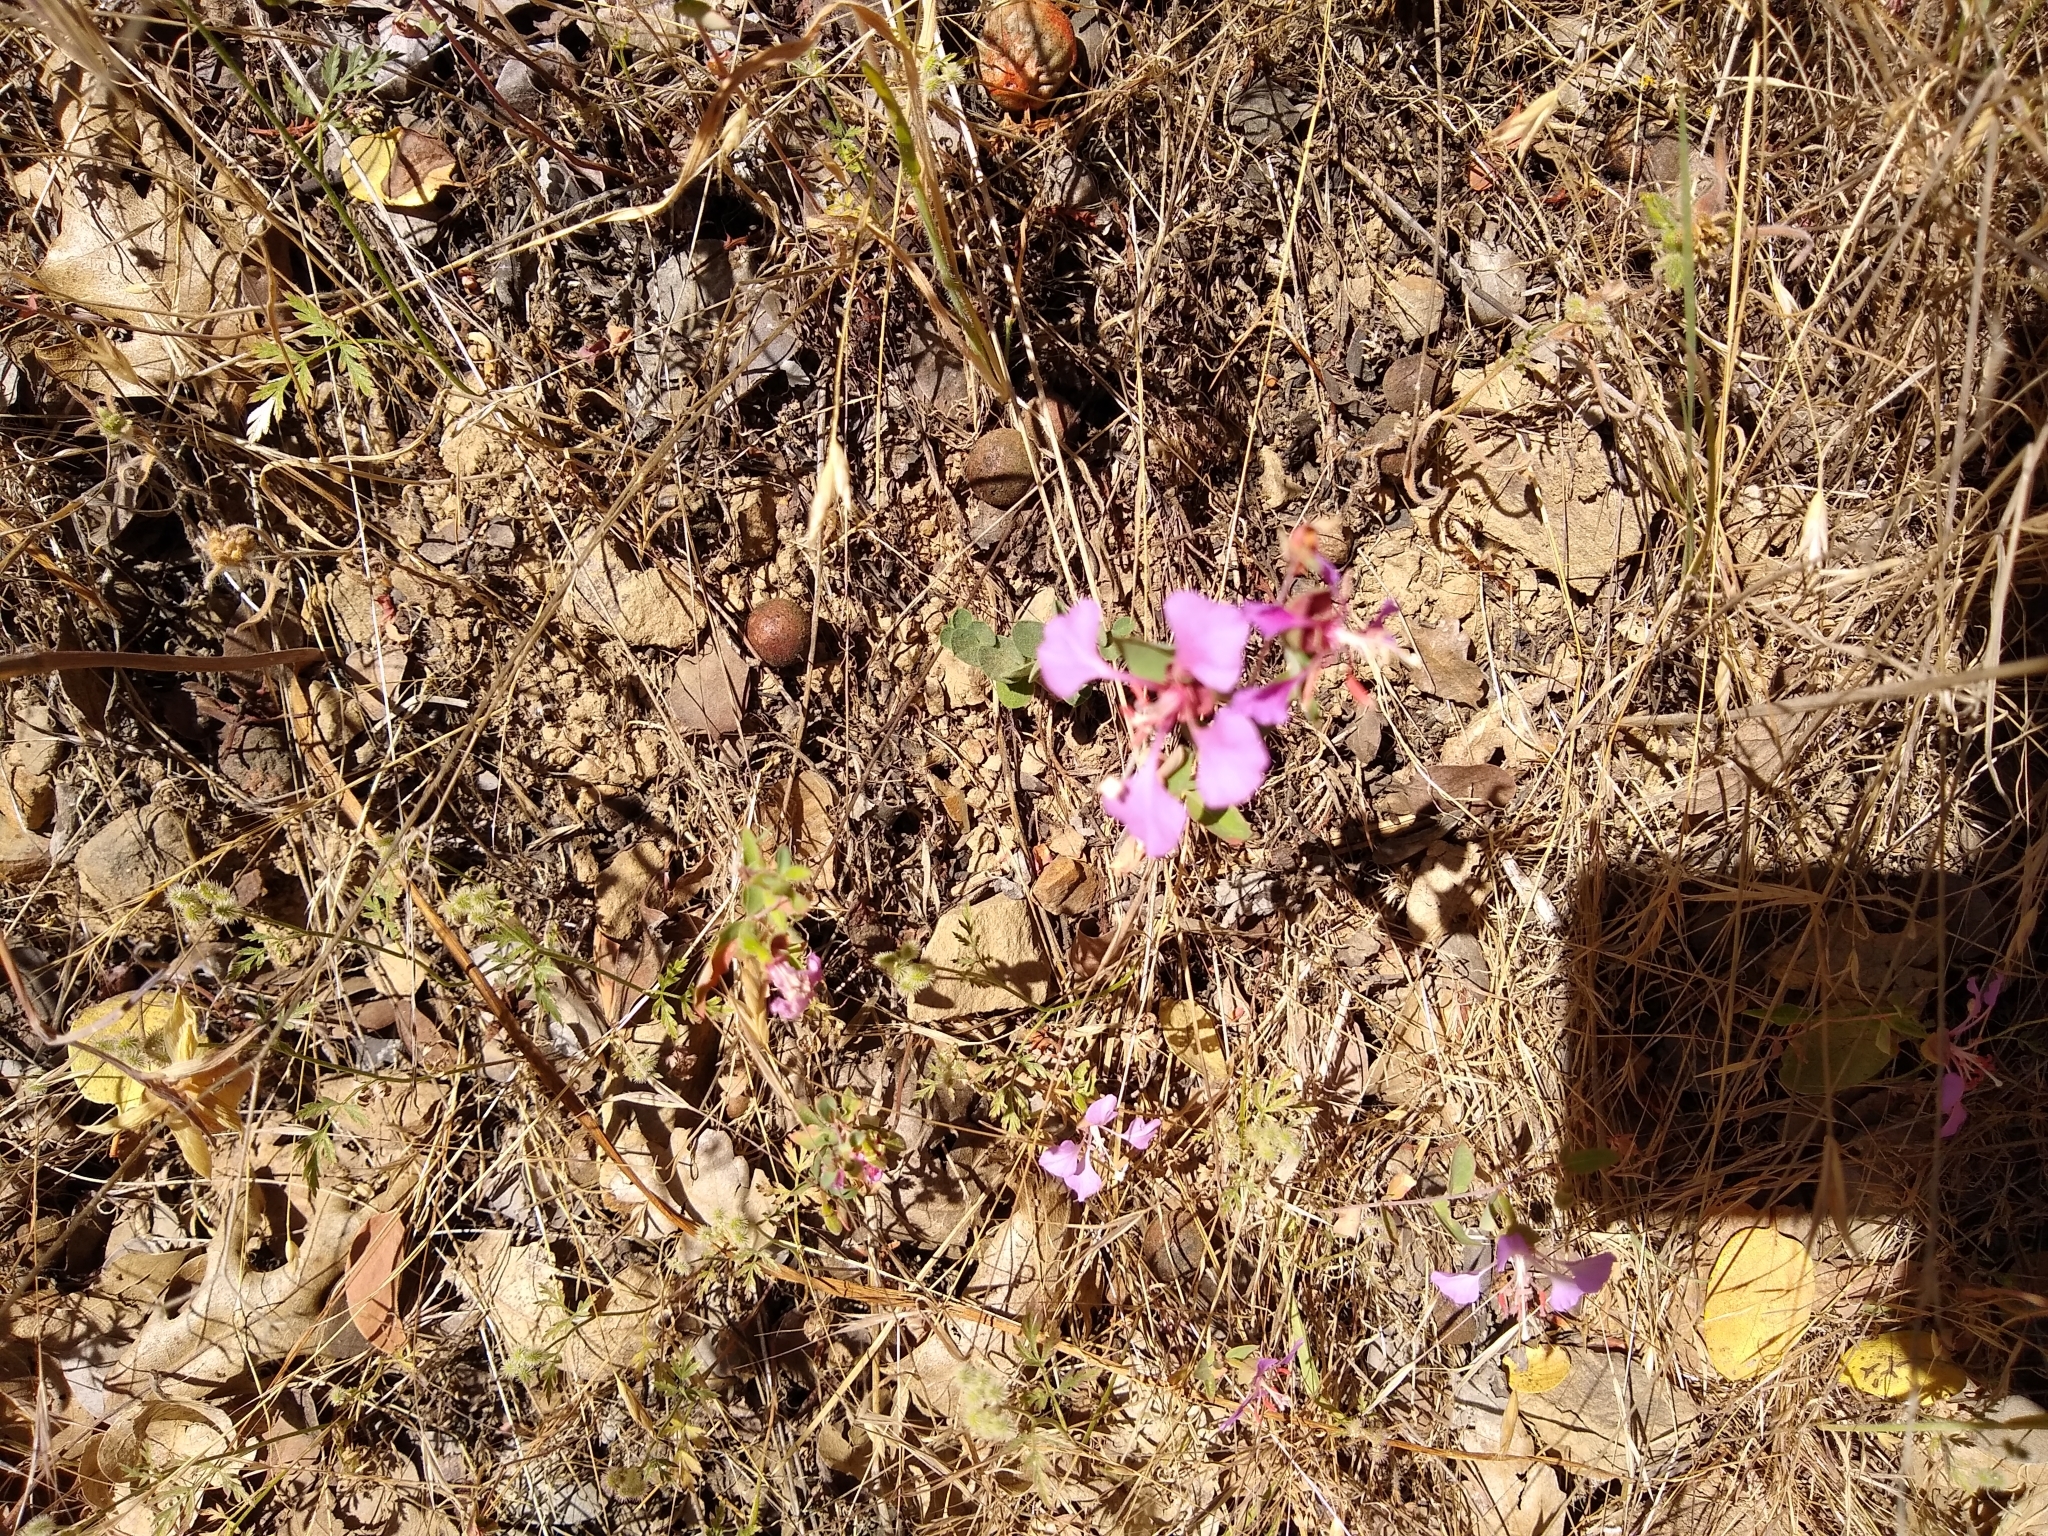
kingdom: Plantae
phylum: Tracheophyta
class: Magnoliopsida
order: Myrtales
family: Onagraceae
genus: Clarkia
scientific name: Clarkia unguiculata
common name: Clarkia
